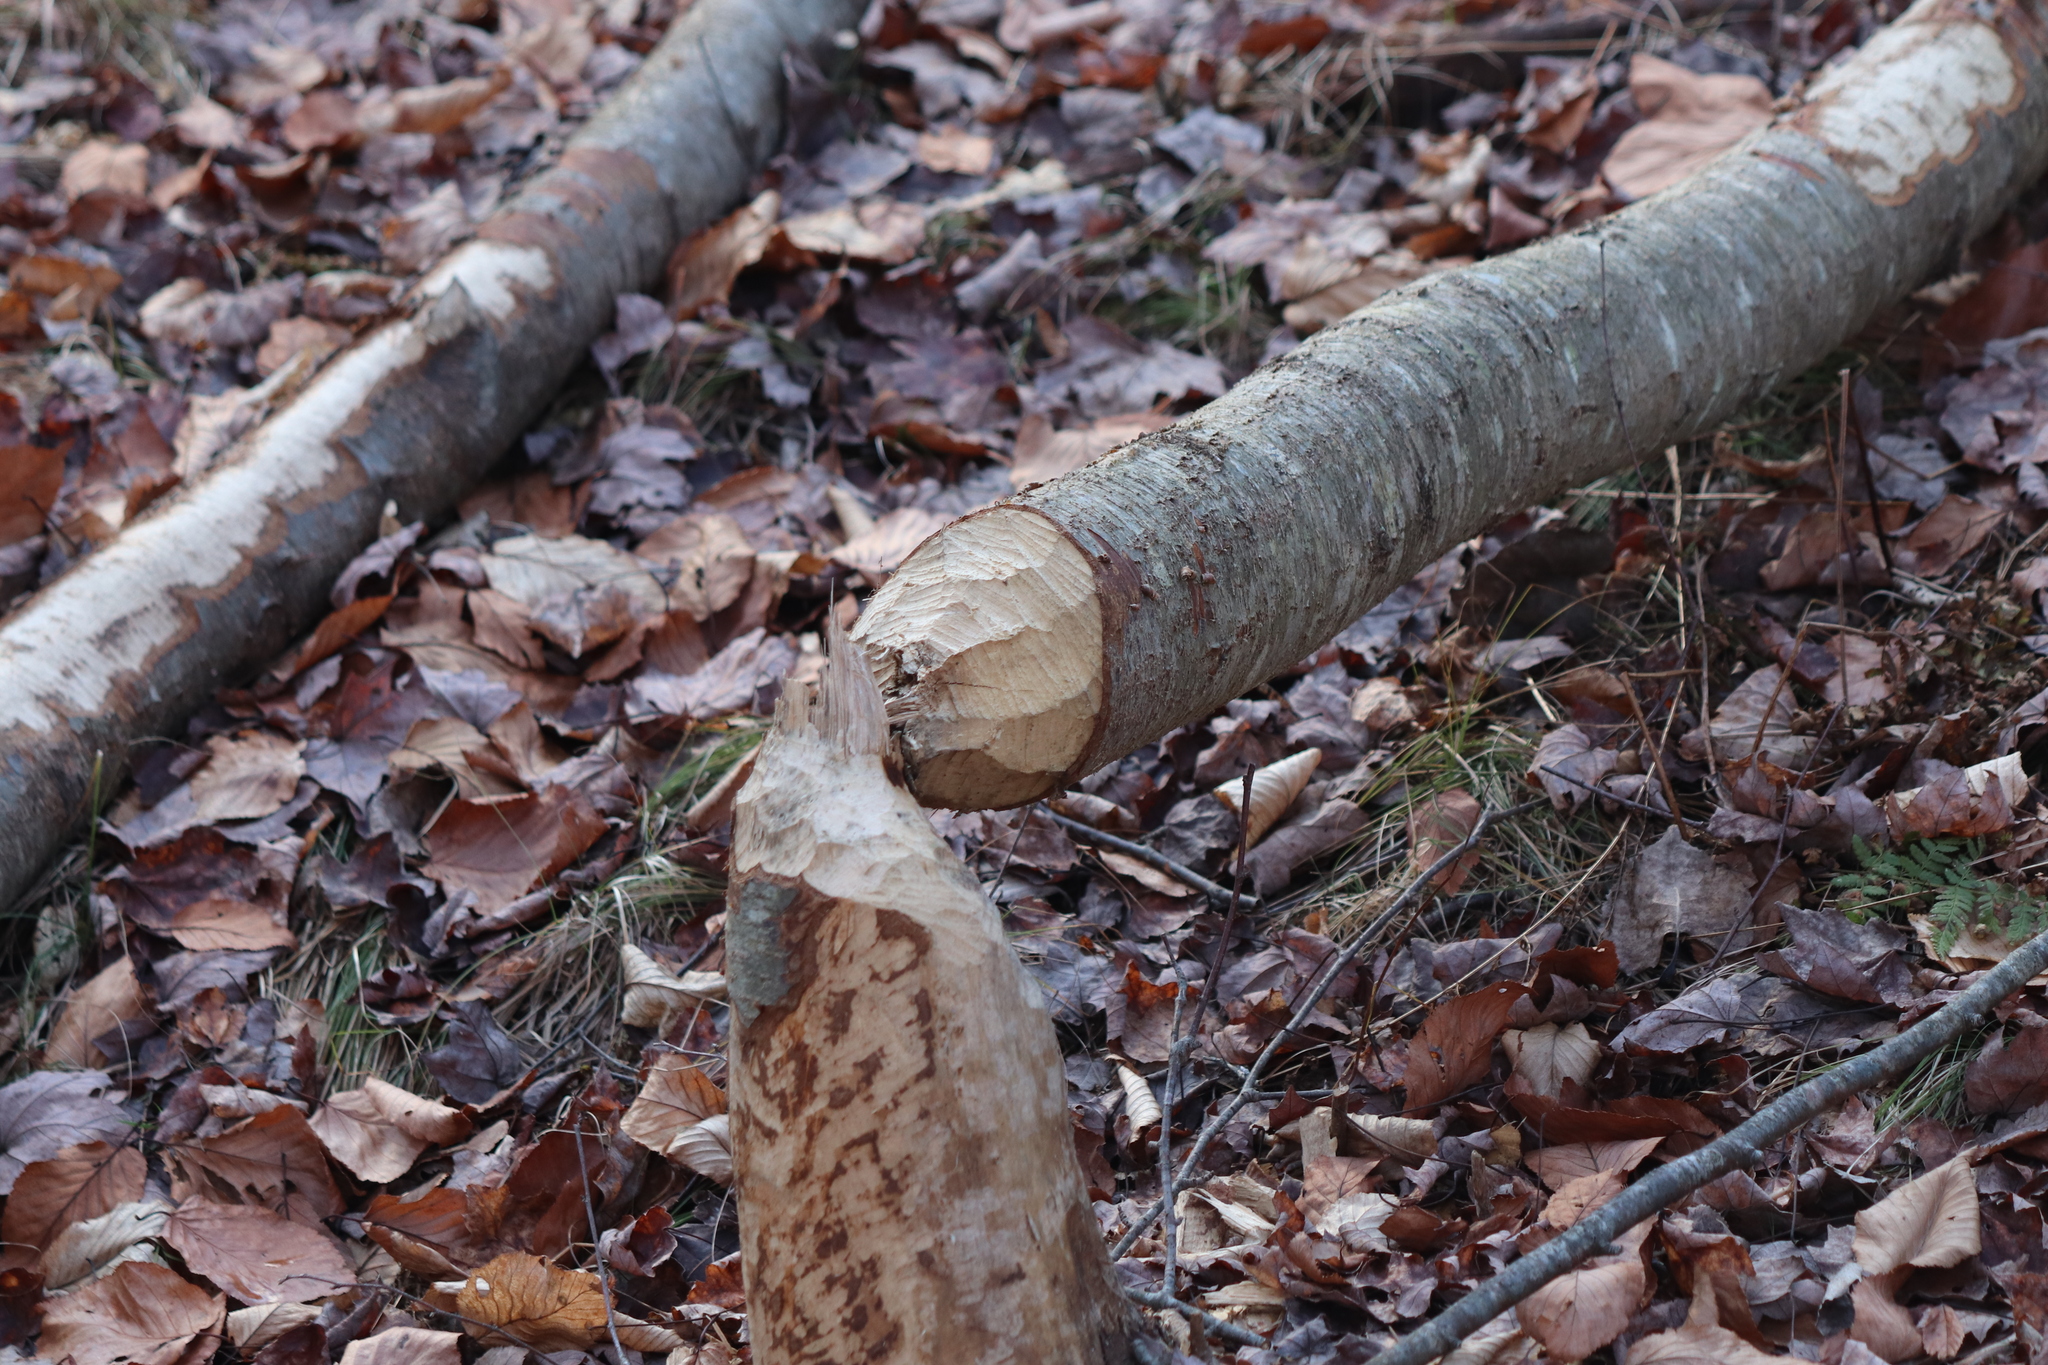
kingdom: Animalia
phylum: Chordata
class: Mammalia
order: Rodentia
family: Castoridae
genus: Castor
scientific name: Castor canadensis
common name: American beaver
